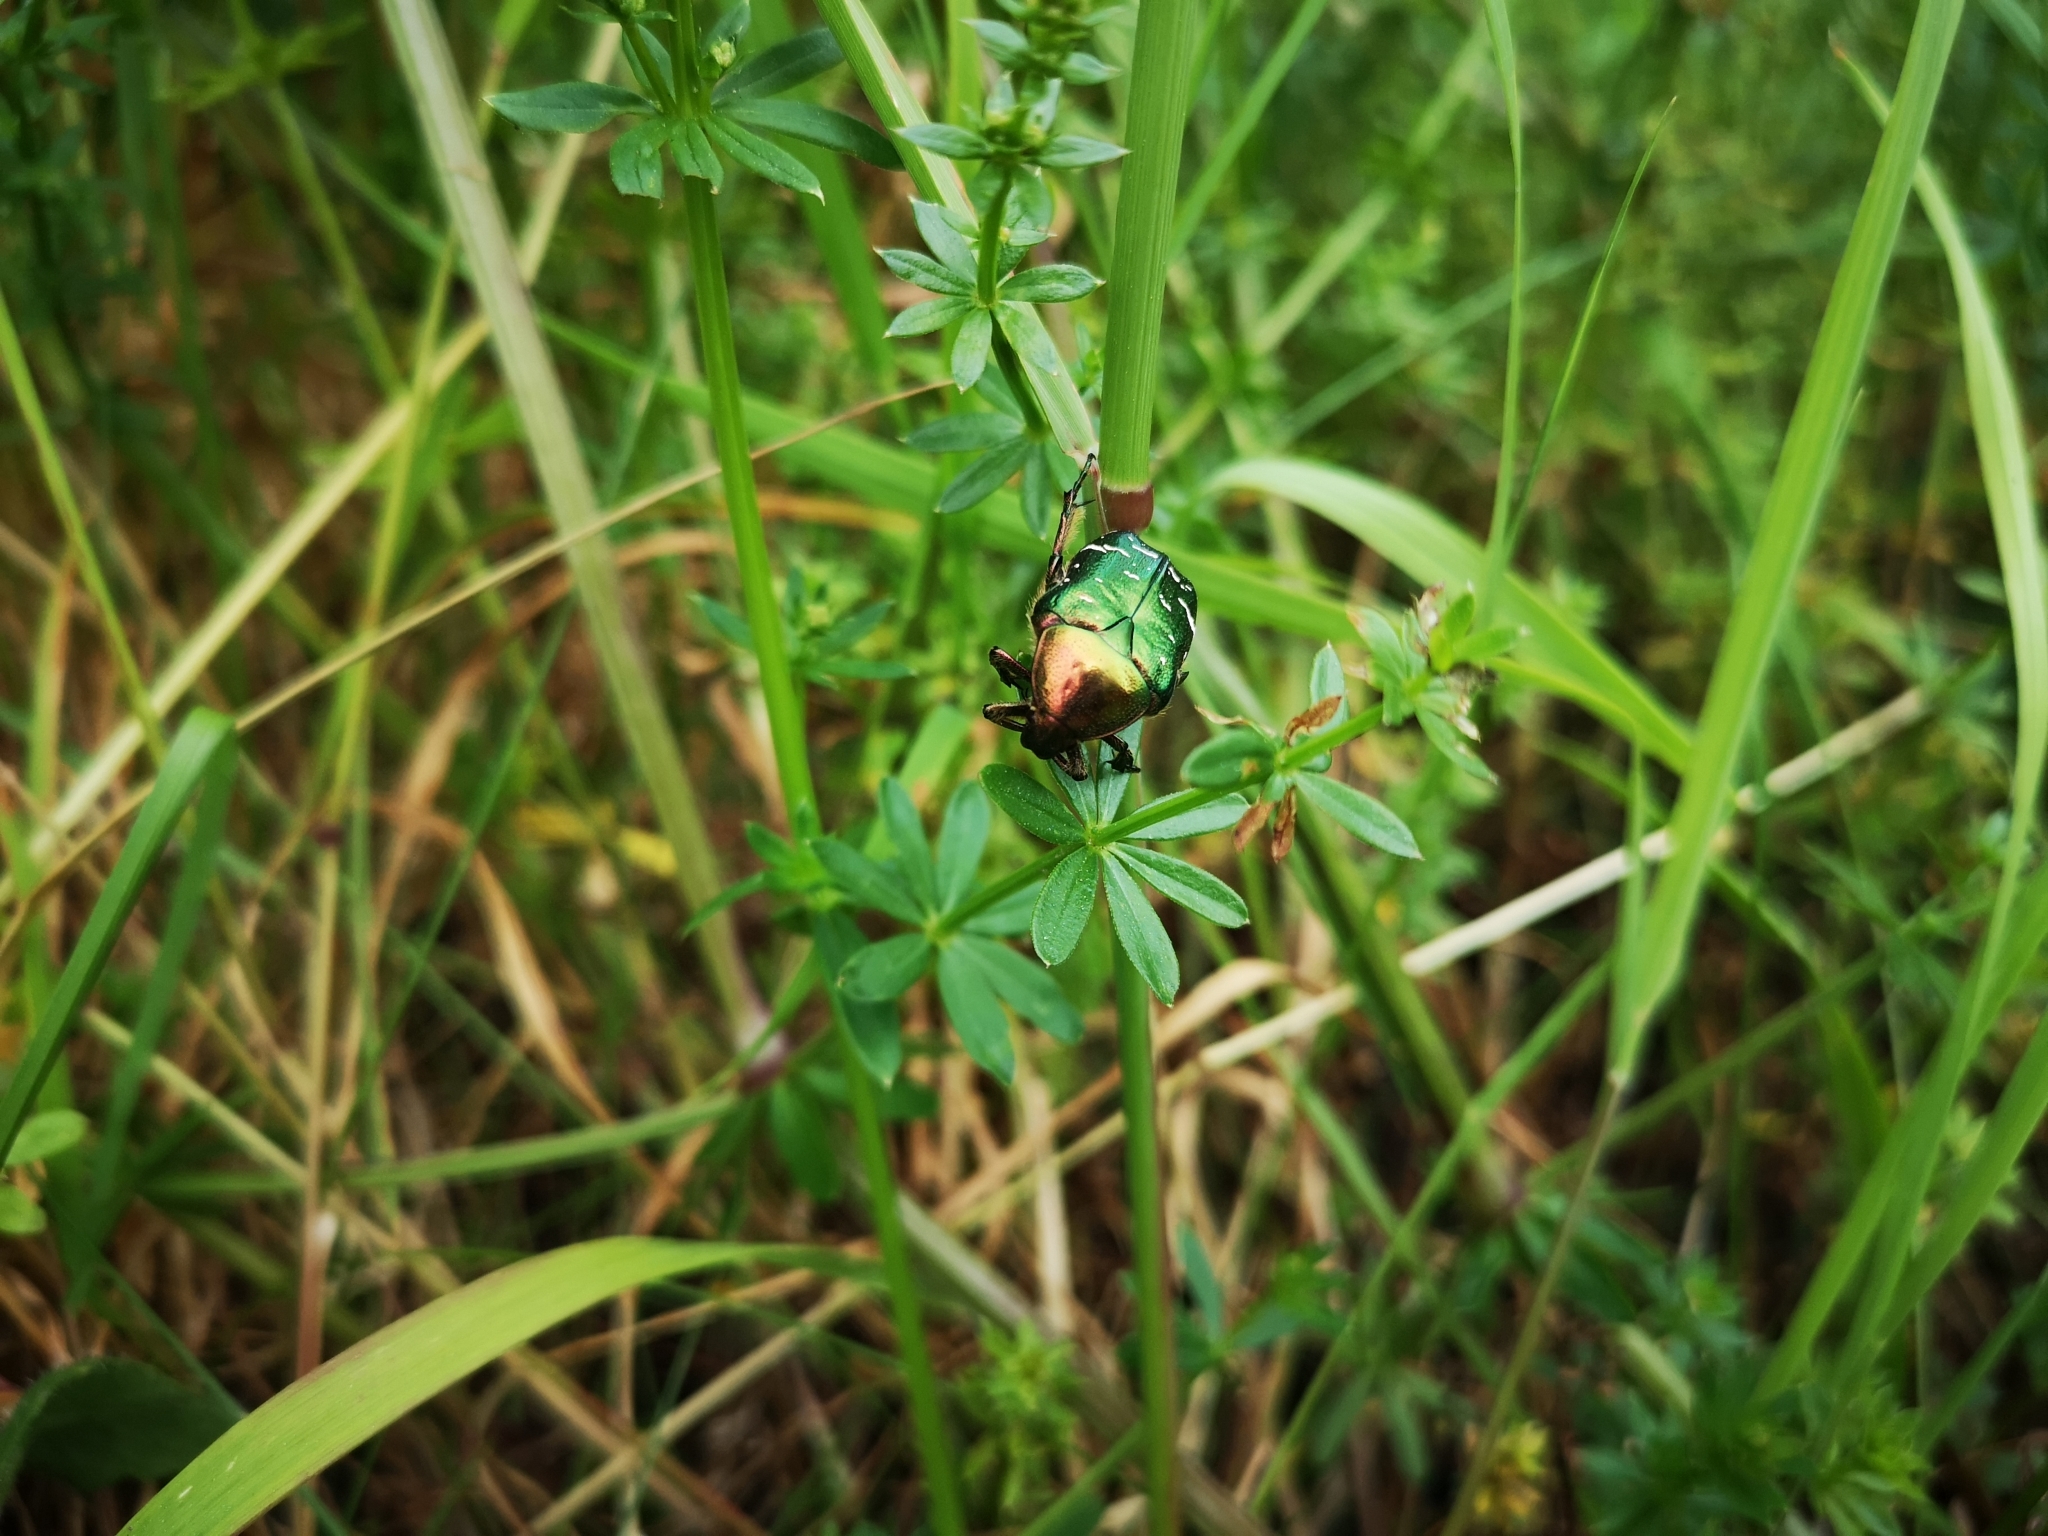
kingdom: Animalia
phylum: Arthropoda
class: Insecta
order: Coleoptera
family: Scarabaeidae
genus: Cetonia
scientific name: Cetonia aurata
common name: Rose chafer
